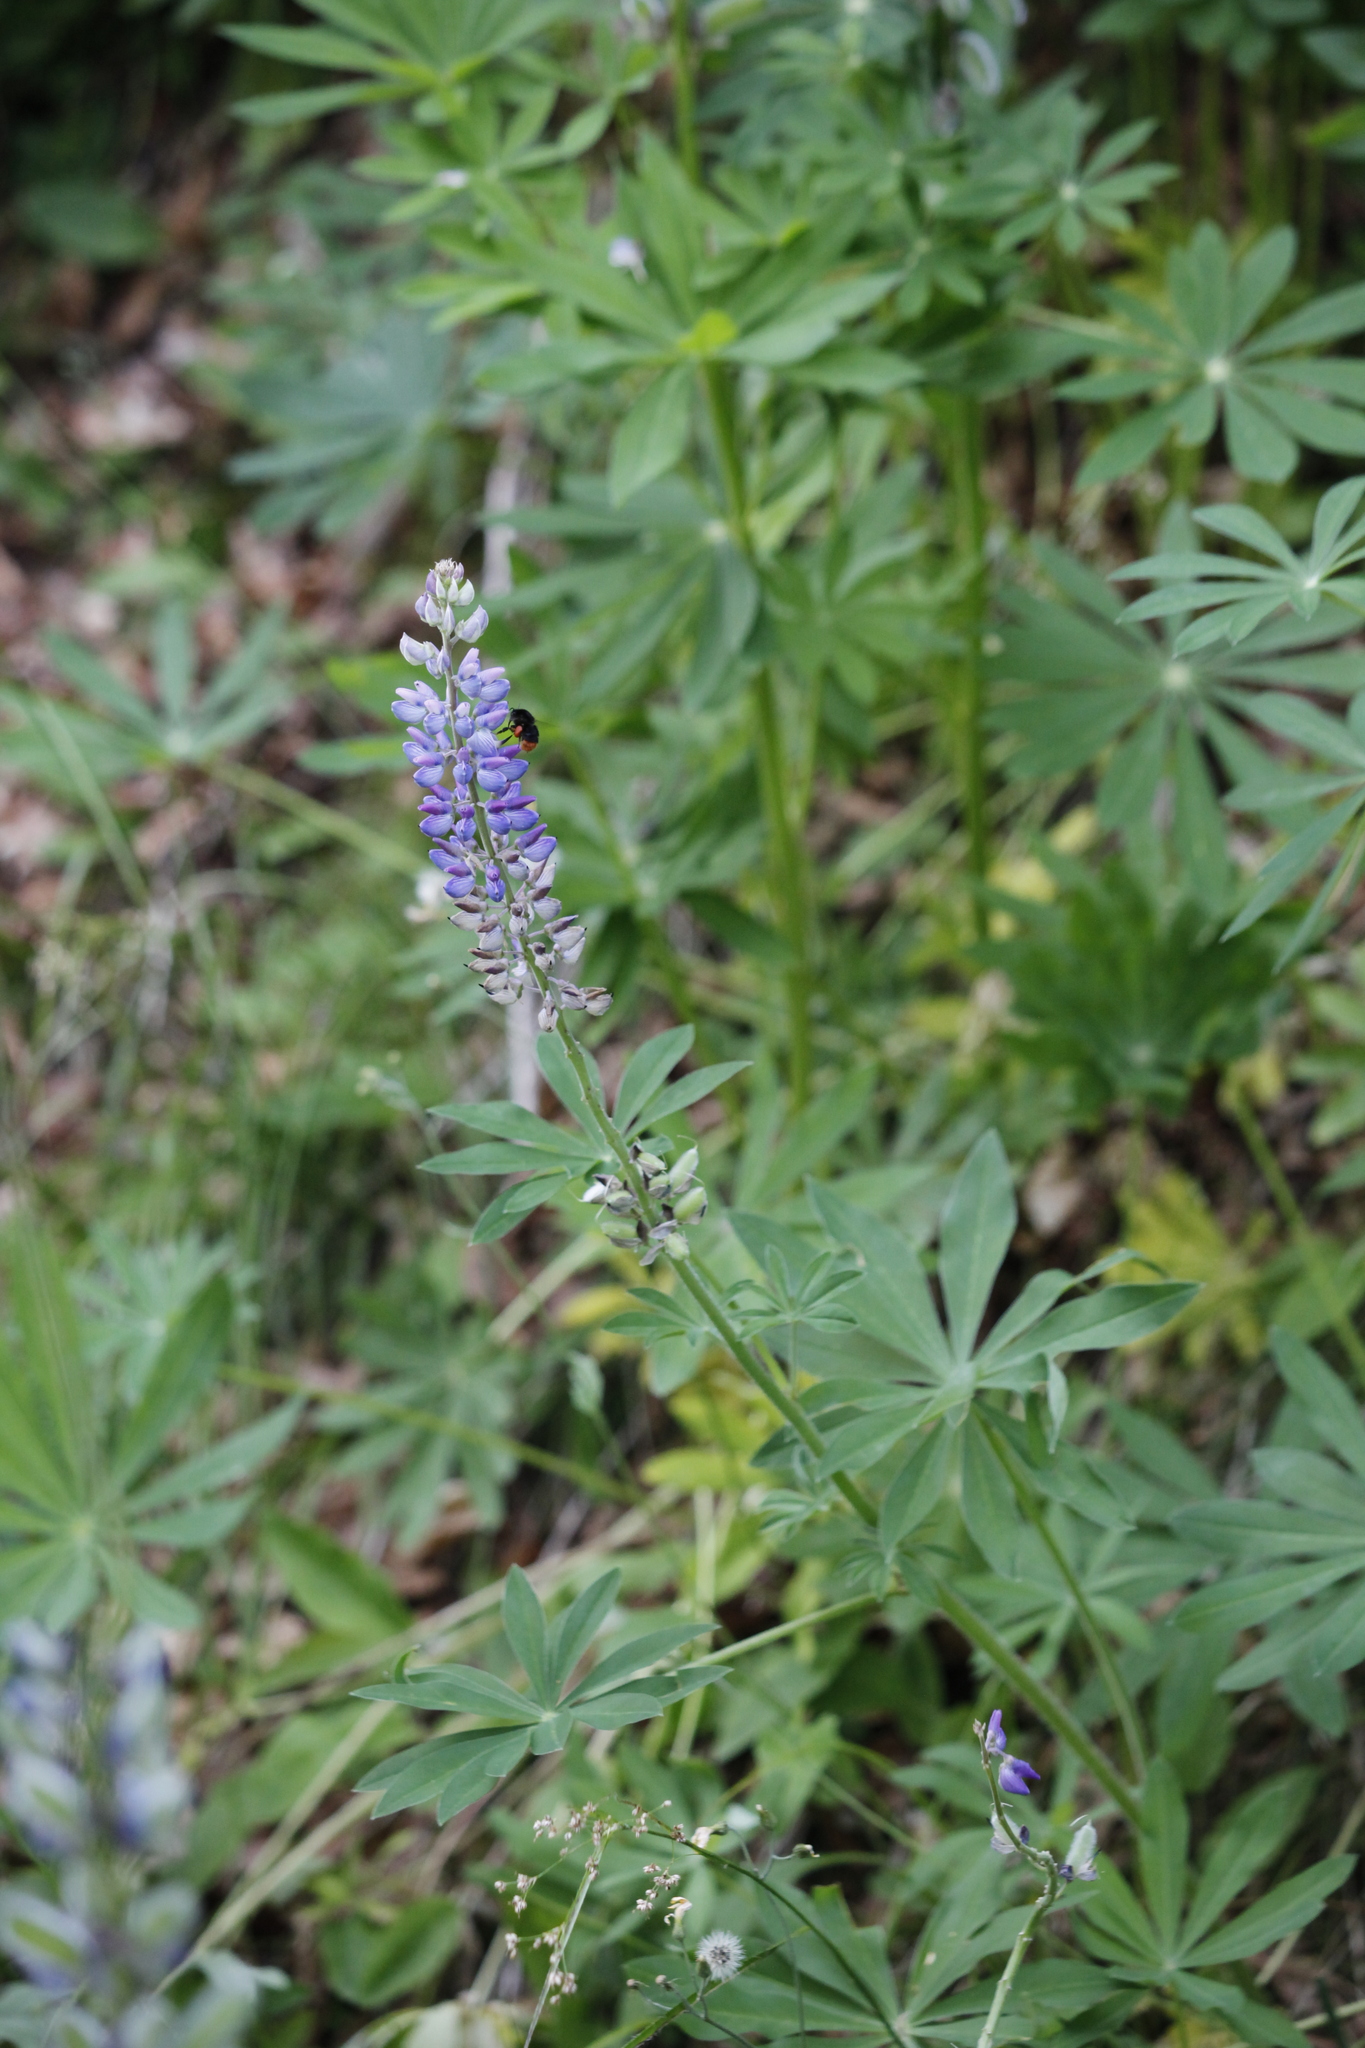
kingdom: Plantae
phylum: Tracheophyta
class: Magnoliopsida
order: Fabales
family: Fabaceae
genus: Lupinus
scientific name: Lupinus polyphyllus
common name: Garden lupin
